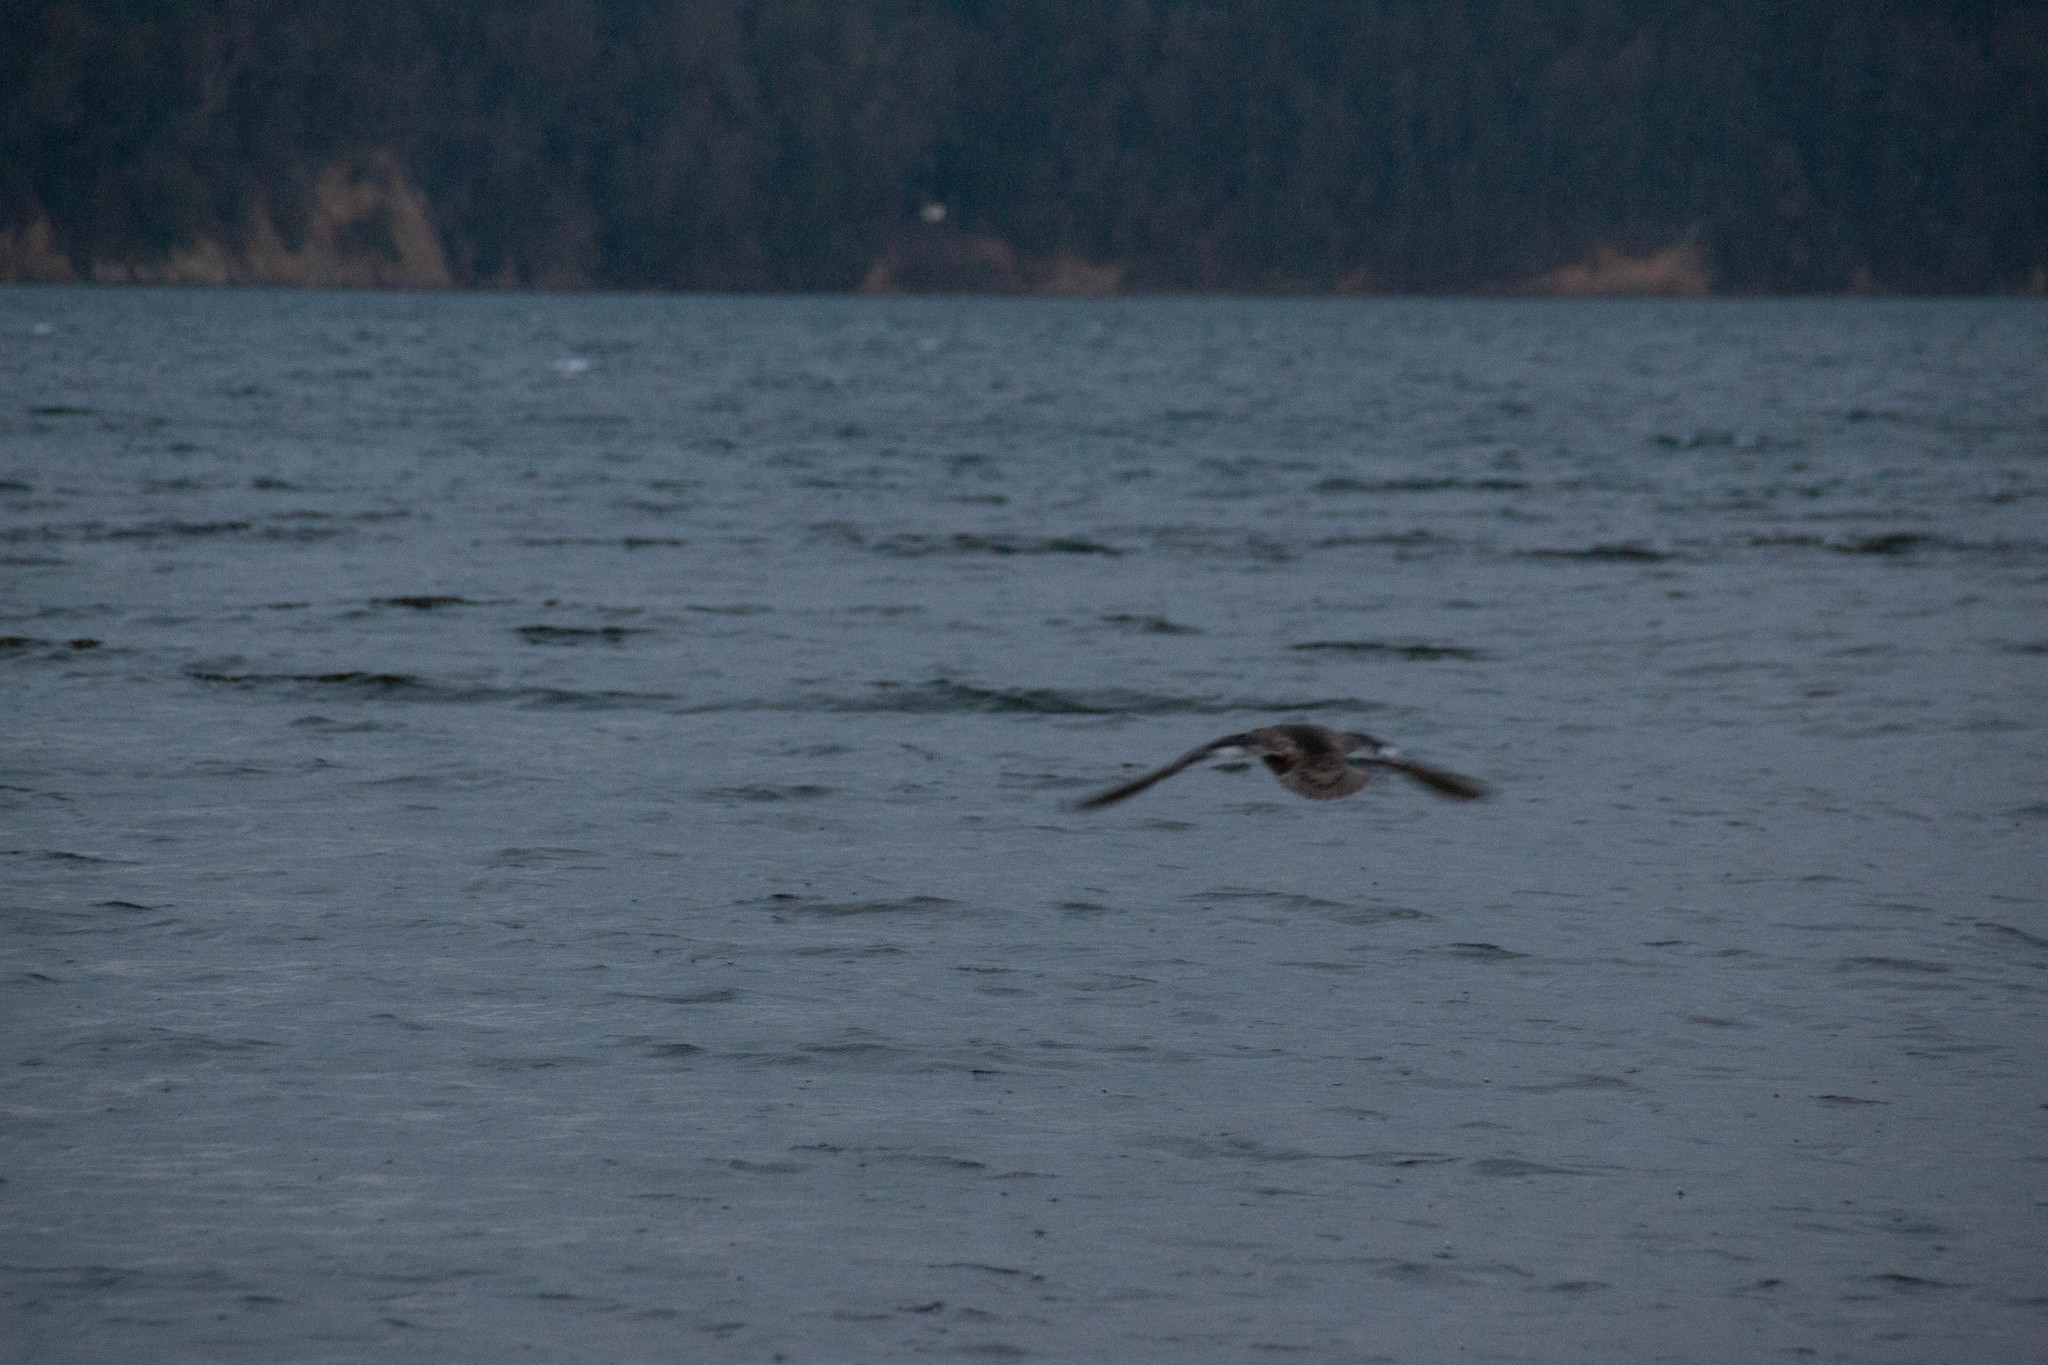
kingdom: Animalia
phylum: Chordata
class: Aves
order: Anseriformes
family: Anatidae
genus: Mareca
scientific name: Mareca strepera
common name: Gadwall
